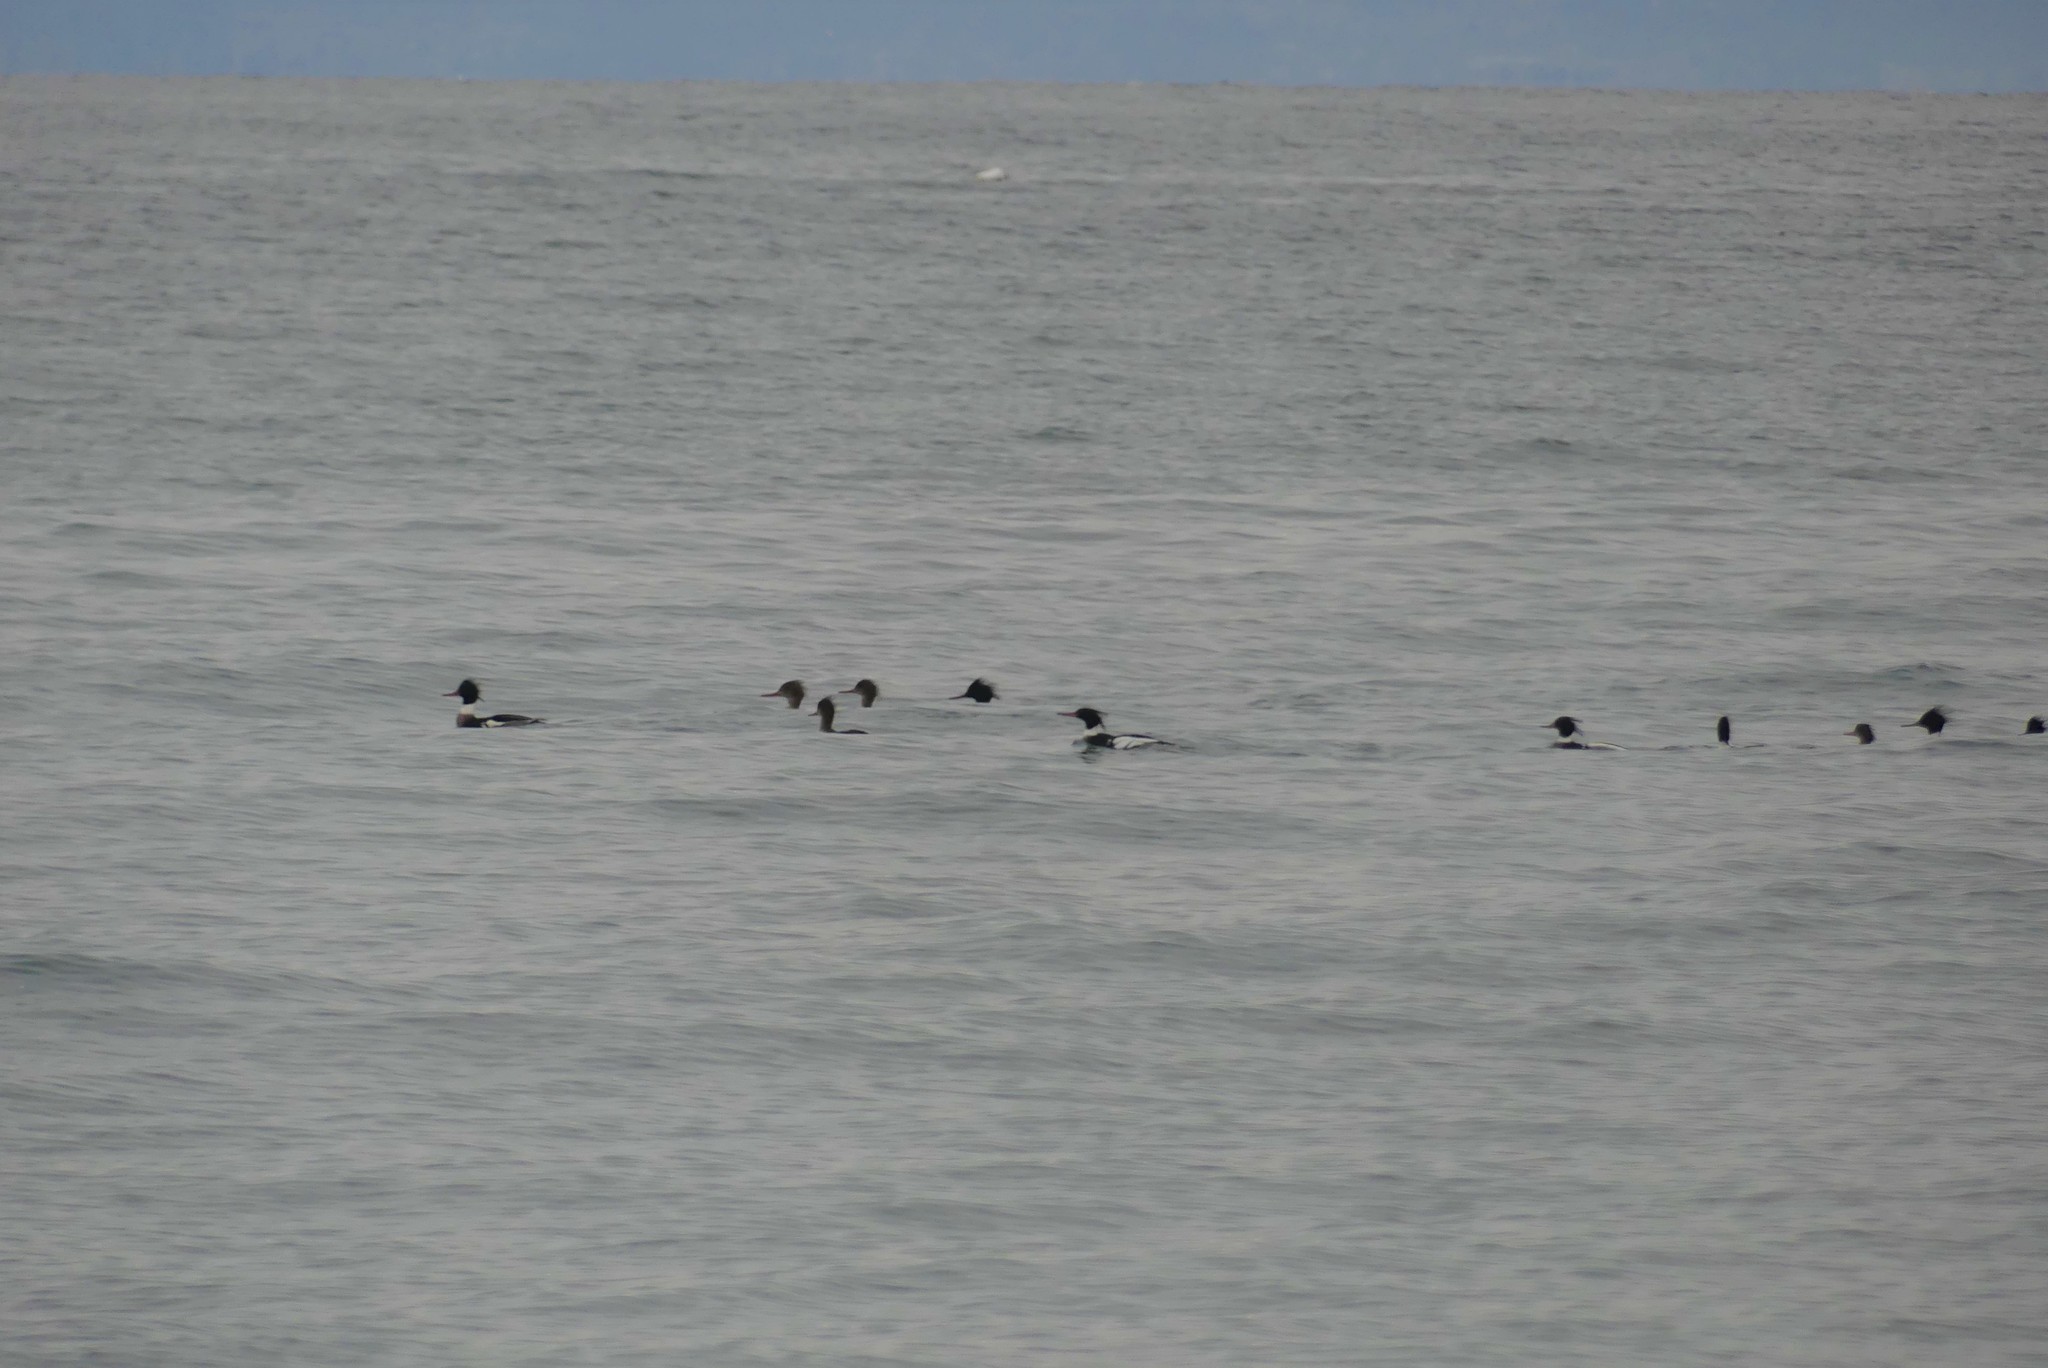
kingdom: Animalia
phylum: Chordata
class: Aves
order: Anseriformes
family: Anatidae
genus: Mergus
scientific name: Mergus serrator
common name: Red-breasted merganser
